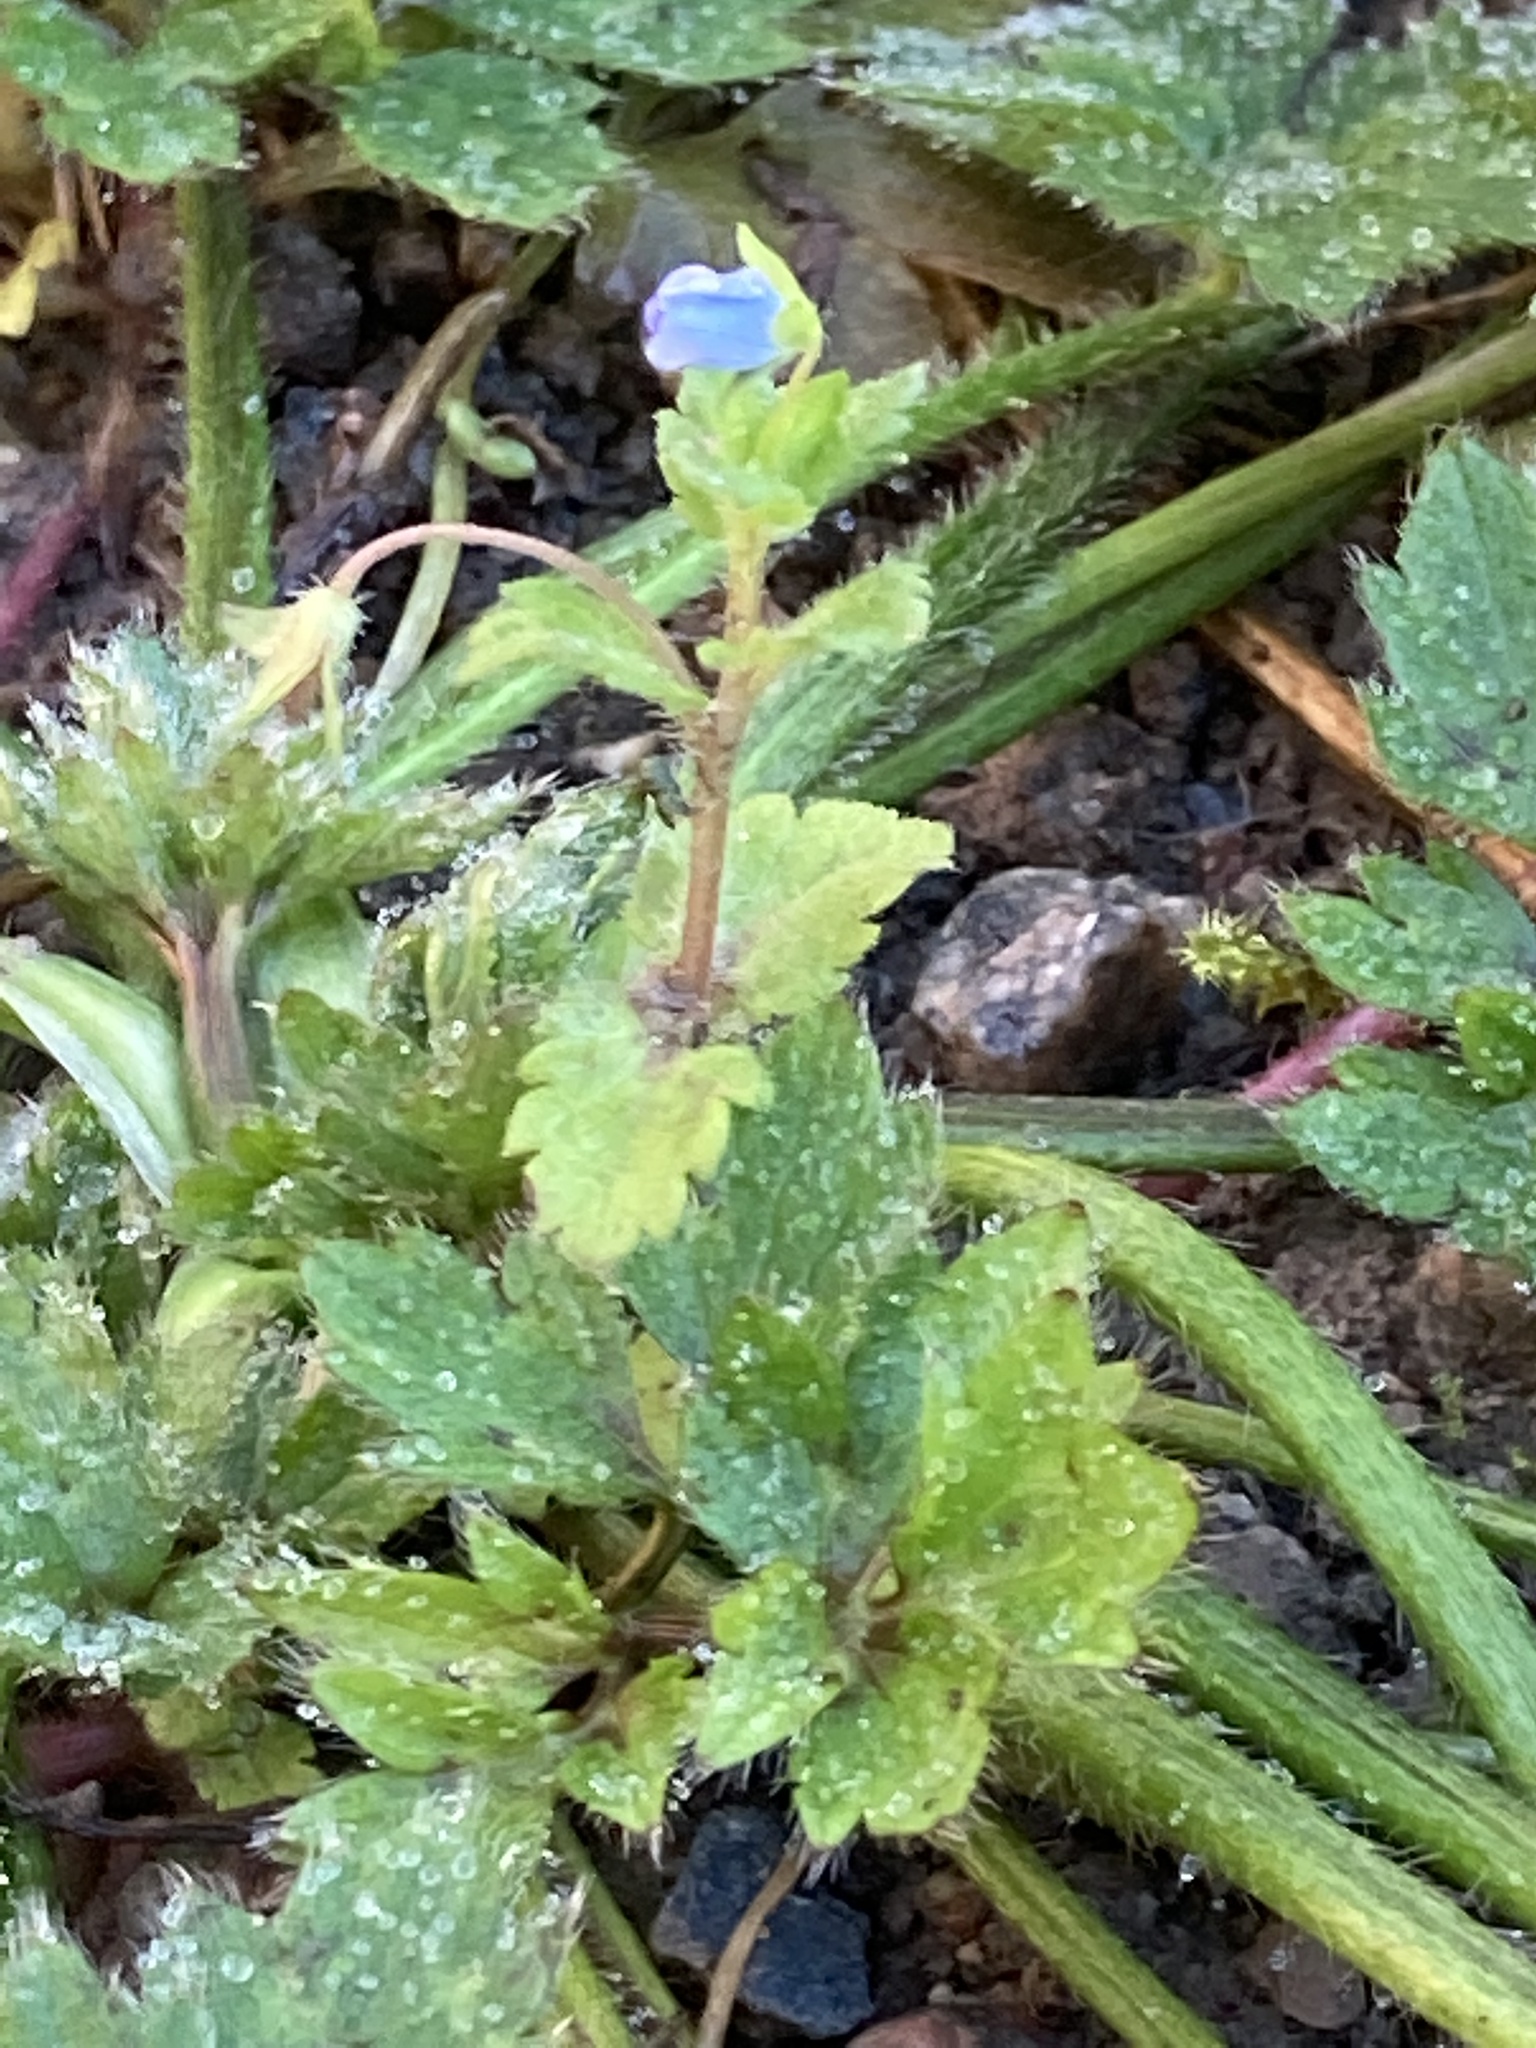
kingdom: Plantae
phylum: Tracheophyta
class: Magnoliopsida
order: Lamiales
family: Plantaginaceae
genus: Veronica
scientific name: Veronica persica
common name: Common field-speedwell
